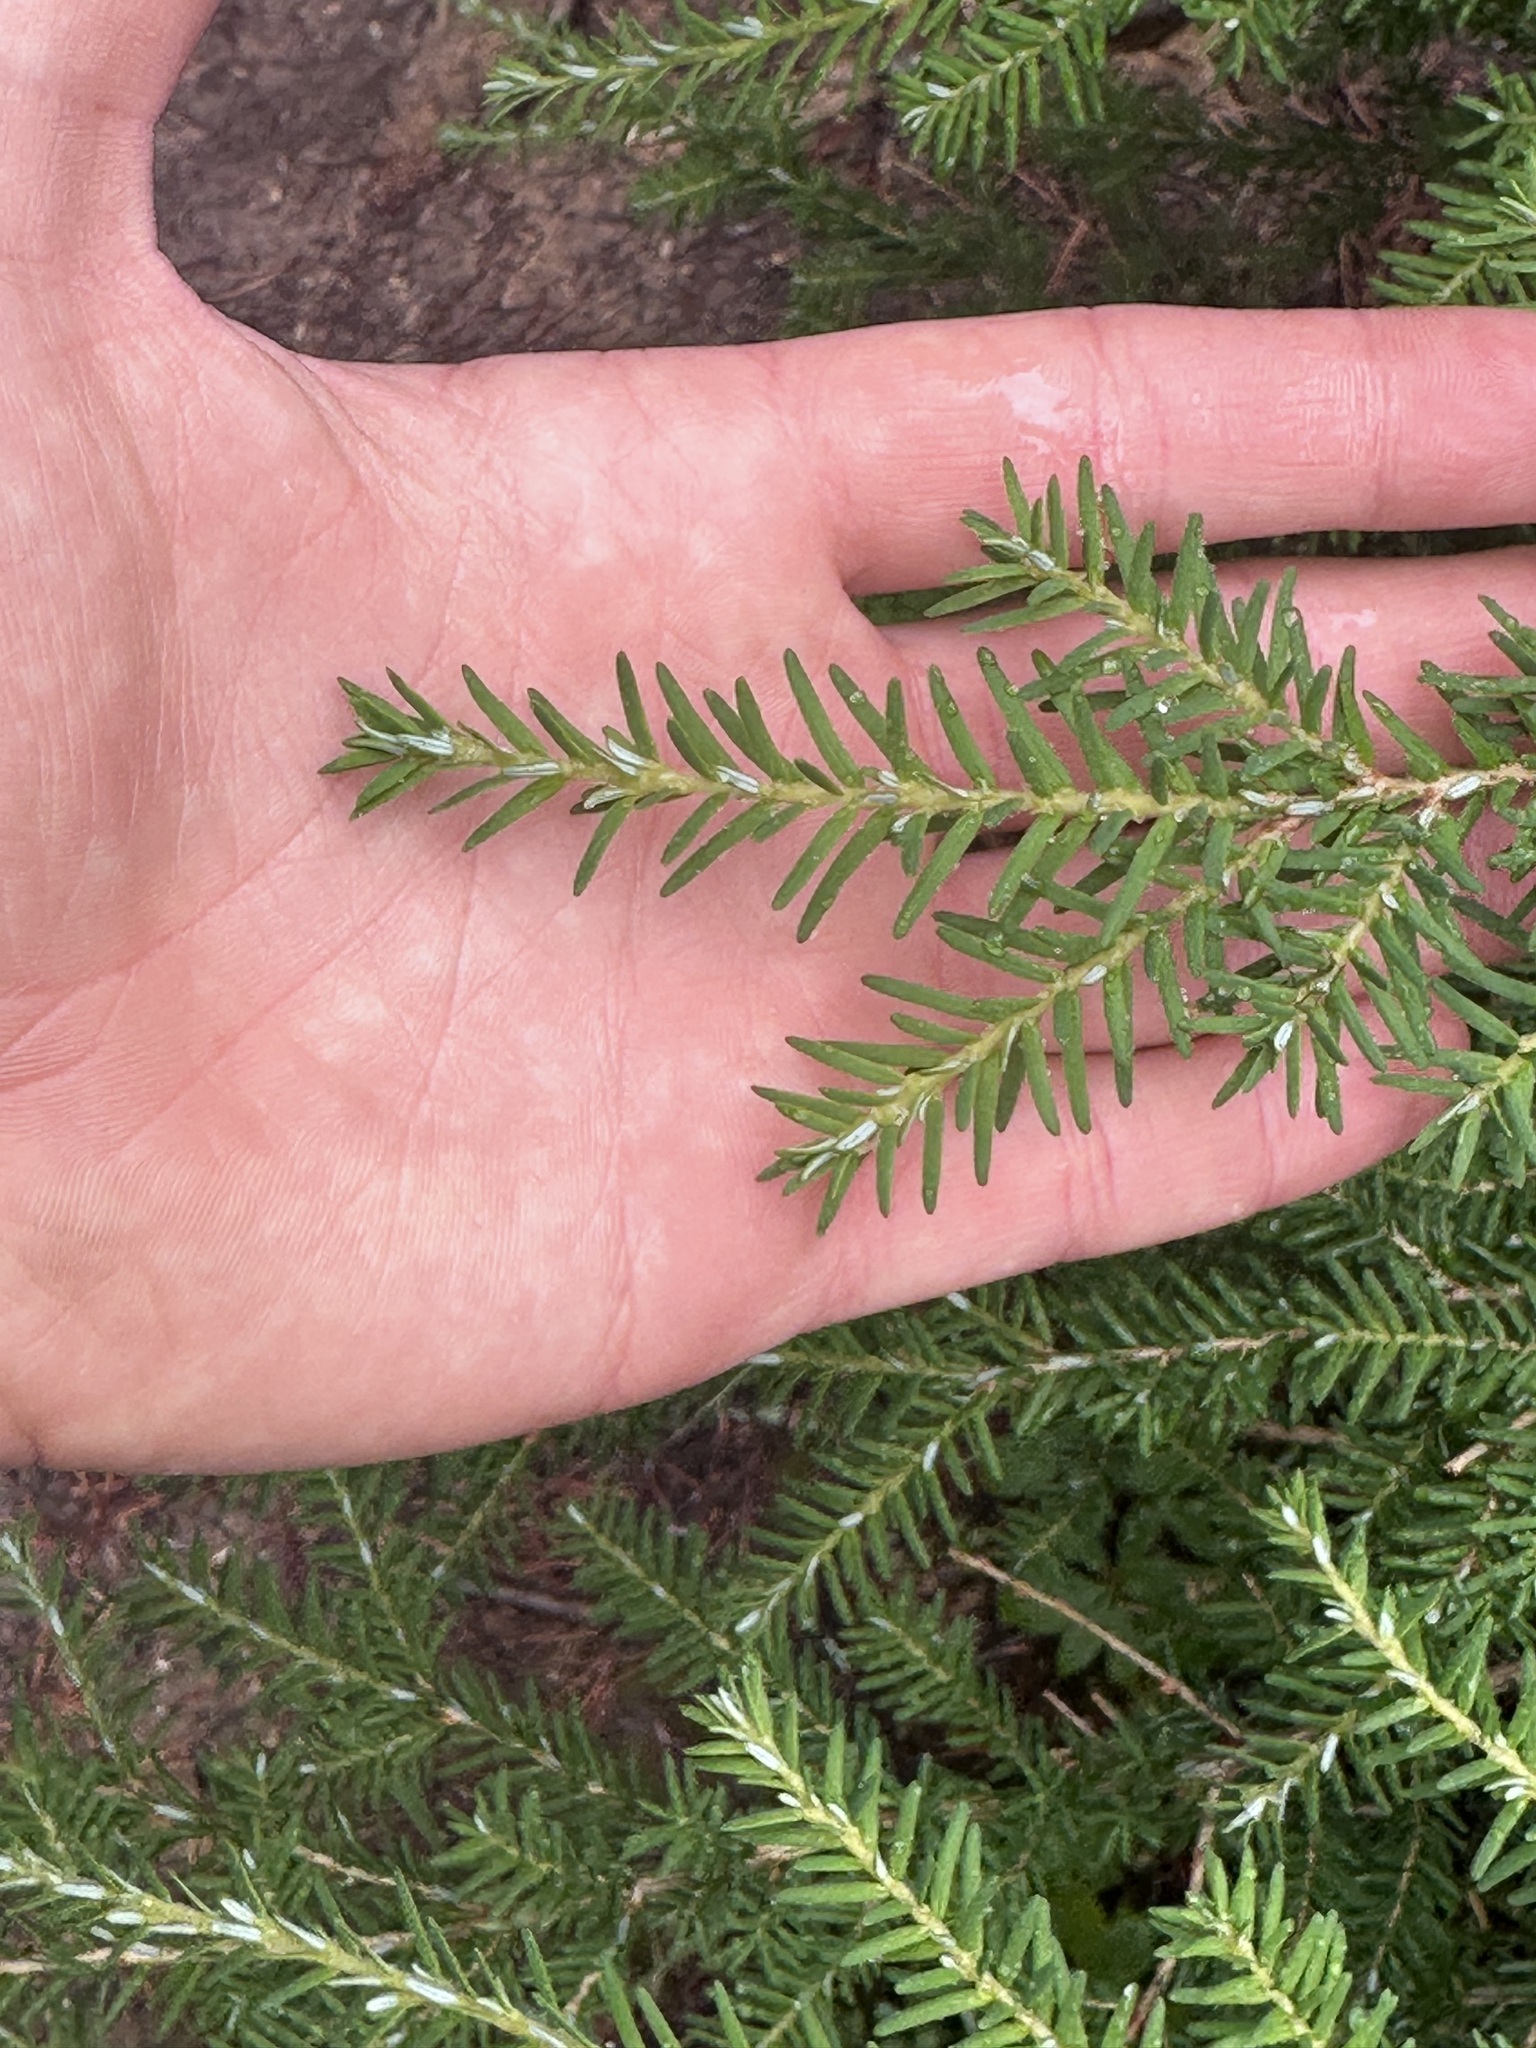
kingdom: Plantae
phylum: Tracheophyta
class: Pinopsida
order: Pinales
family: Pinaceae
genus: Tsuga
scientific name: Tsuga heterophylla
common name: Western hemlock
